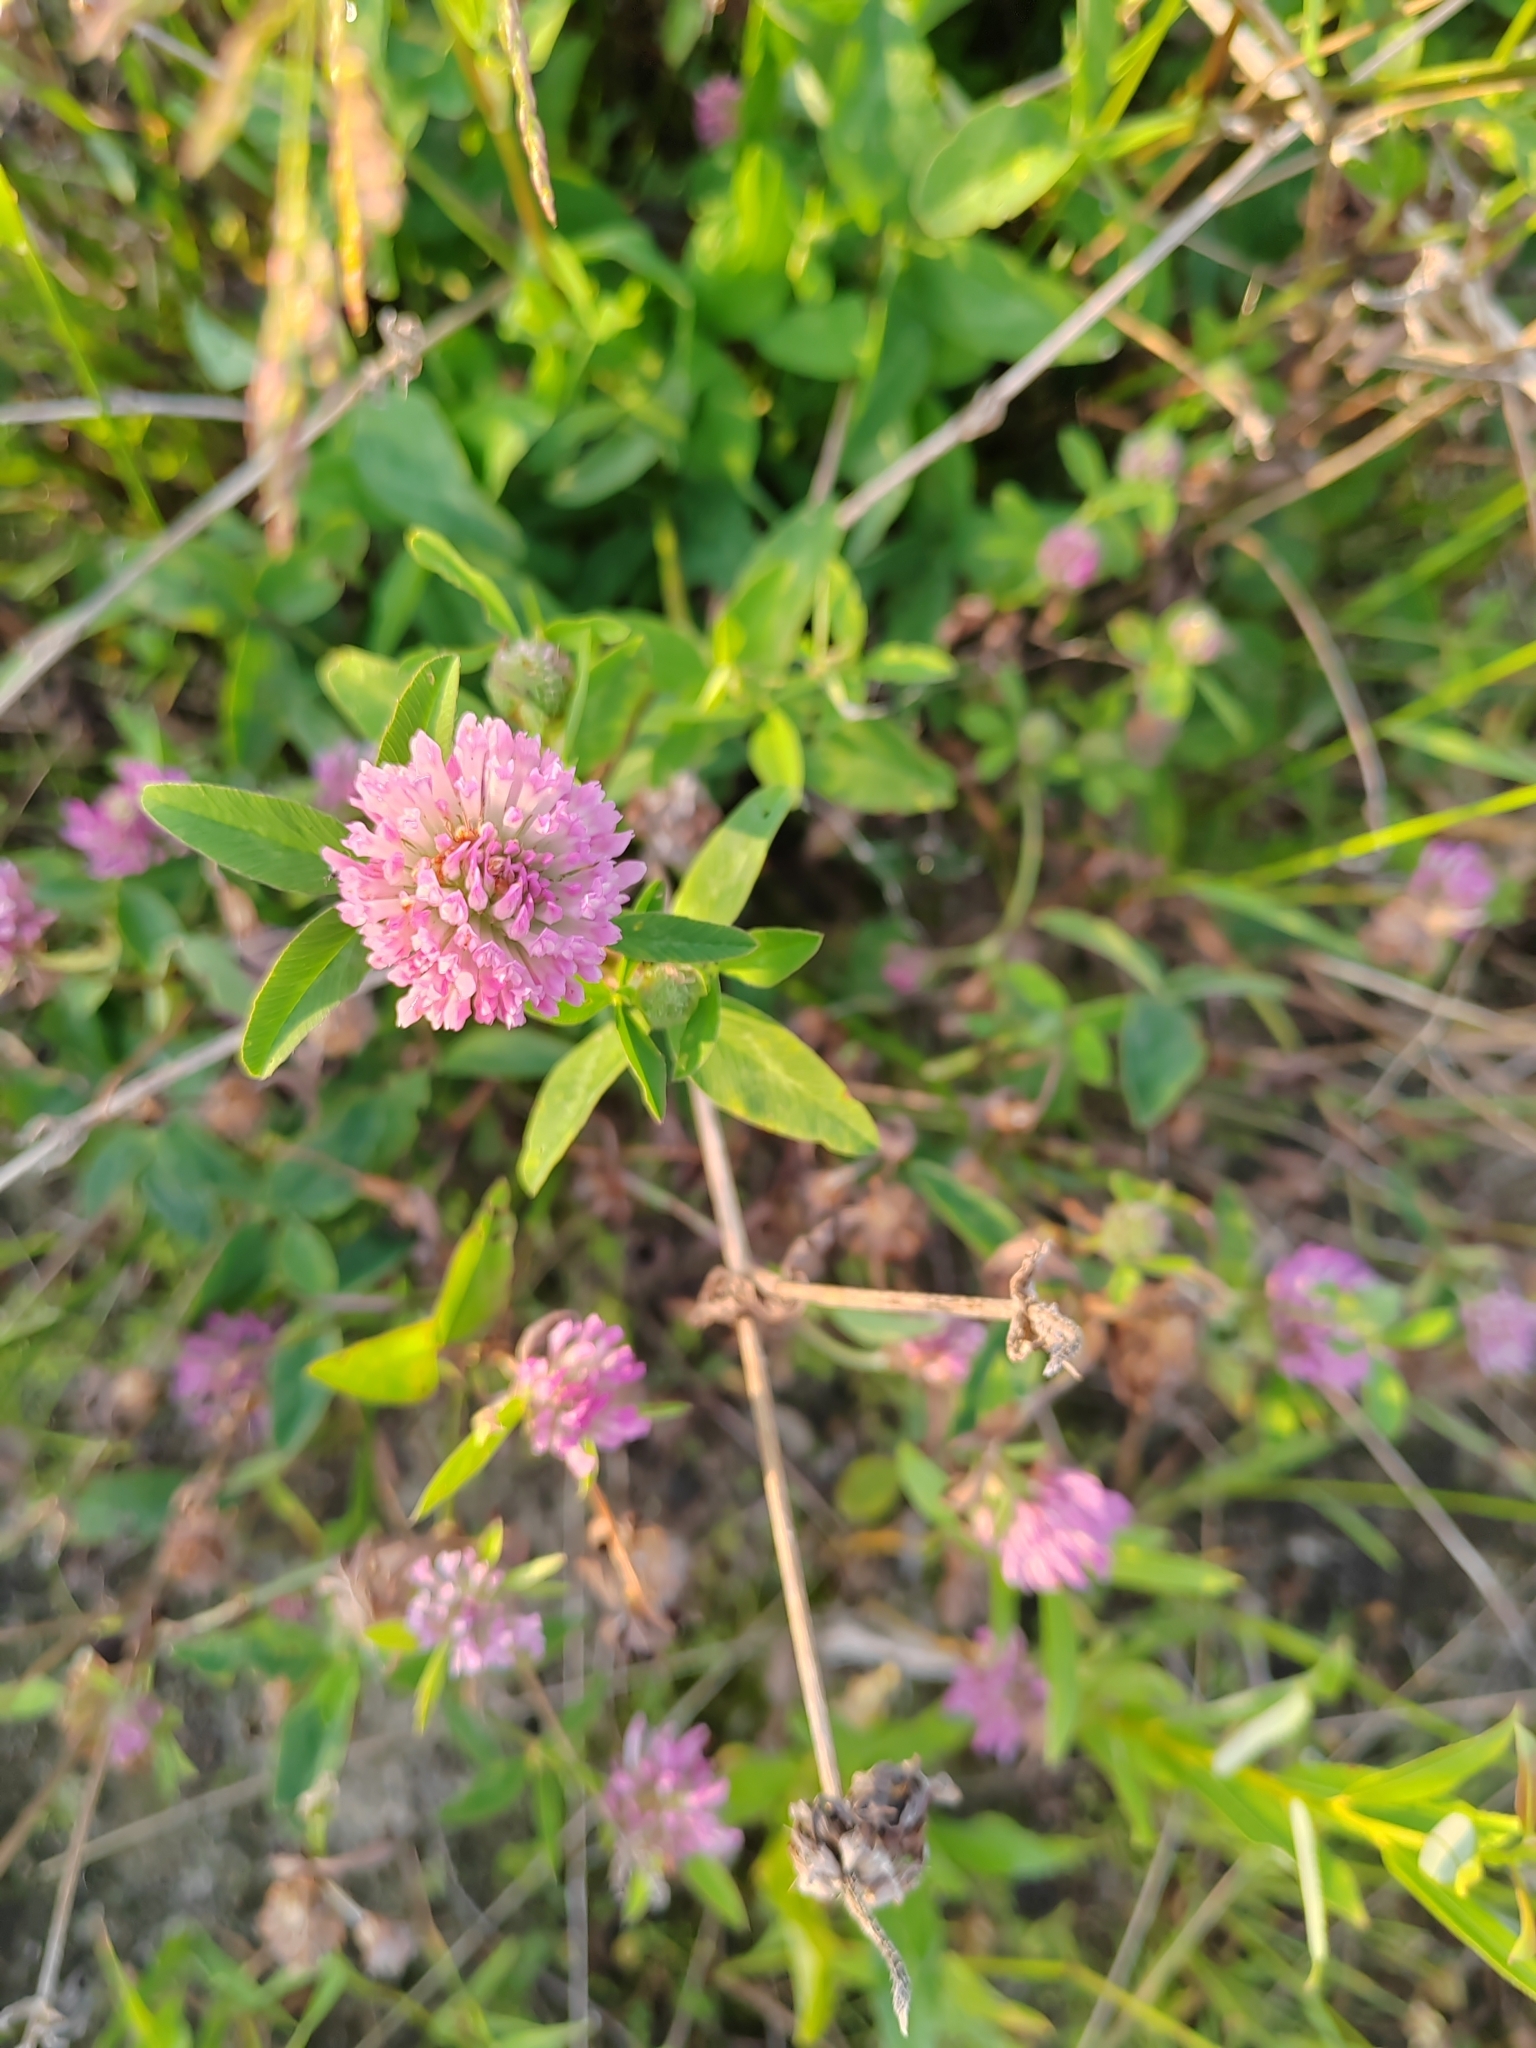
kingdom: Plantae
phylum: Tracheophyta
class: Magnoliopsida
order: Fabales
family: Fabaceae
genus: Trifolium
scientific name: Trifolium pratense
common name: Red clover
